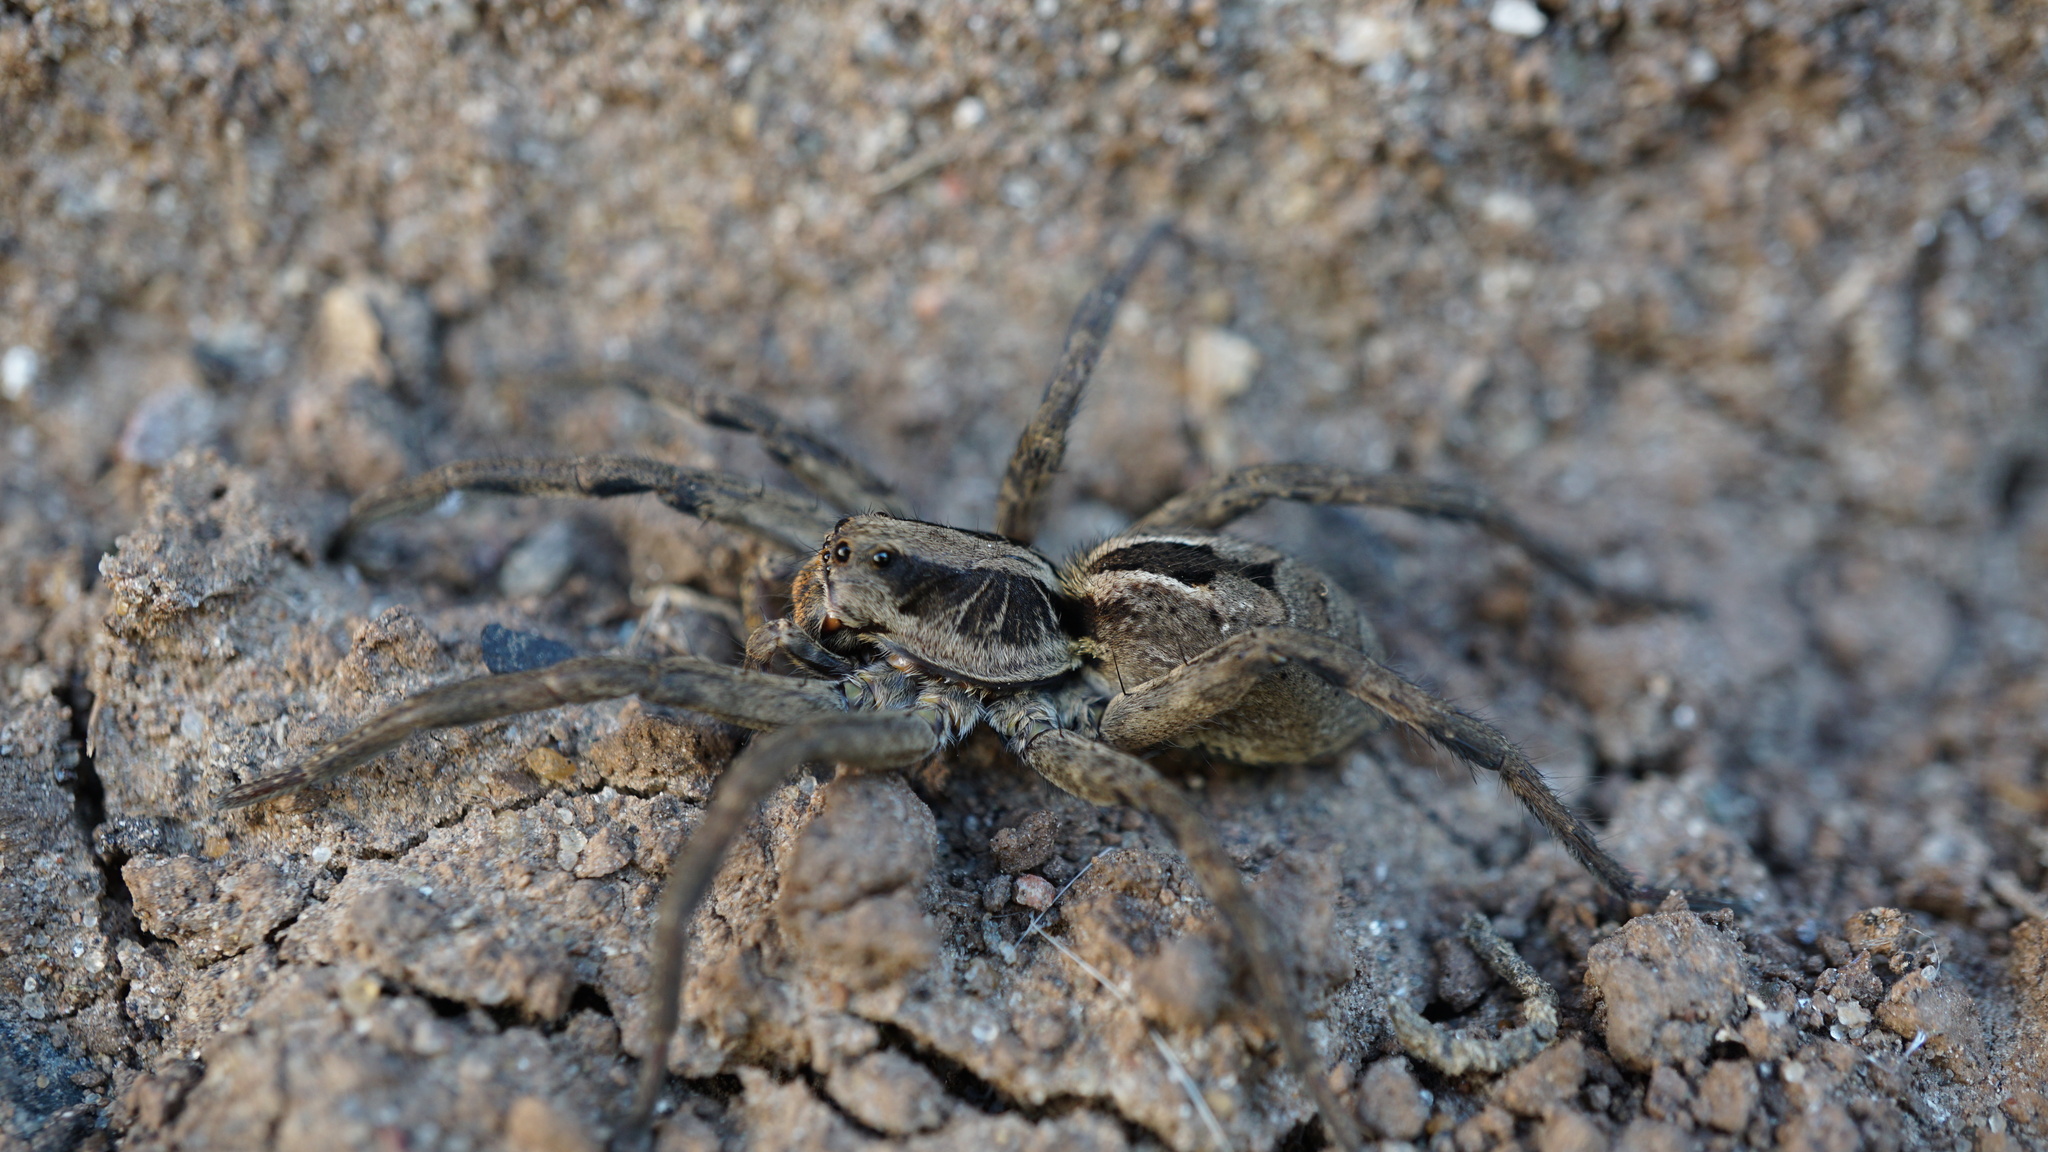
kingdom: Animalia
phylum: Arthropoda
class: Arachnida
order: Araneae
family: Lycosidae
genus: Lycosa
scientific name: Lycosa erythrognatha
